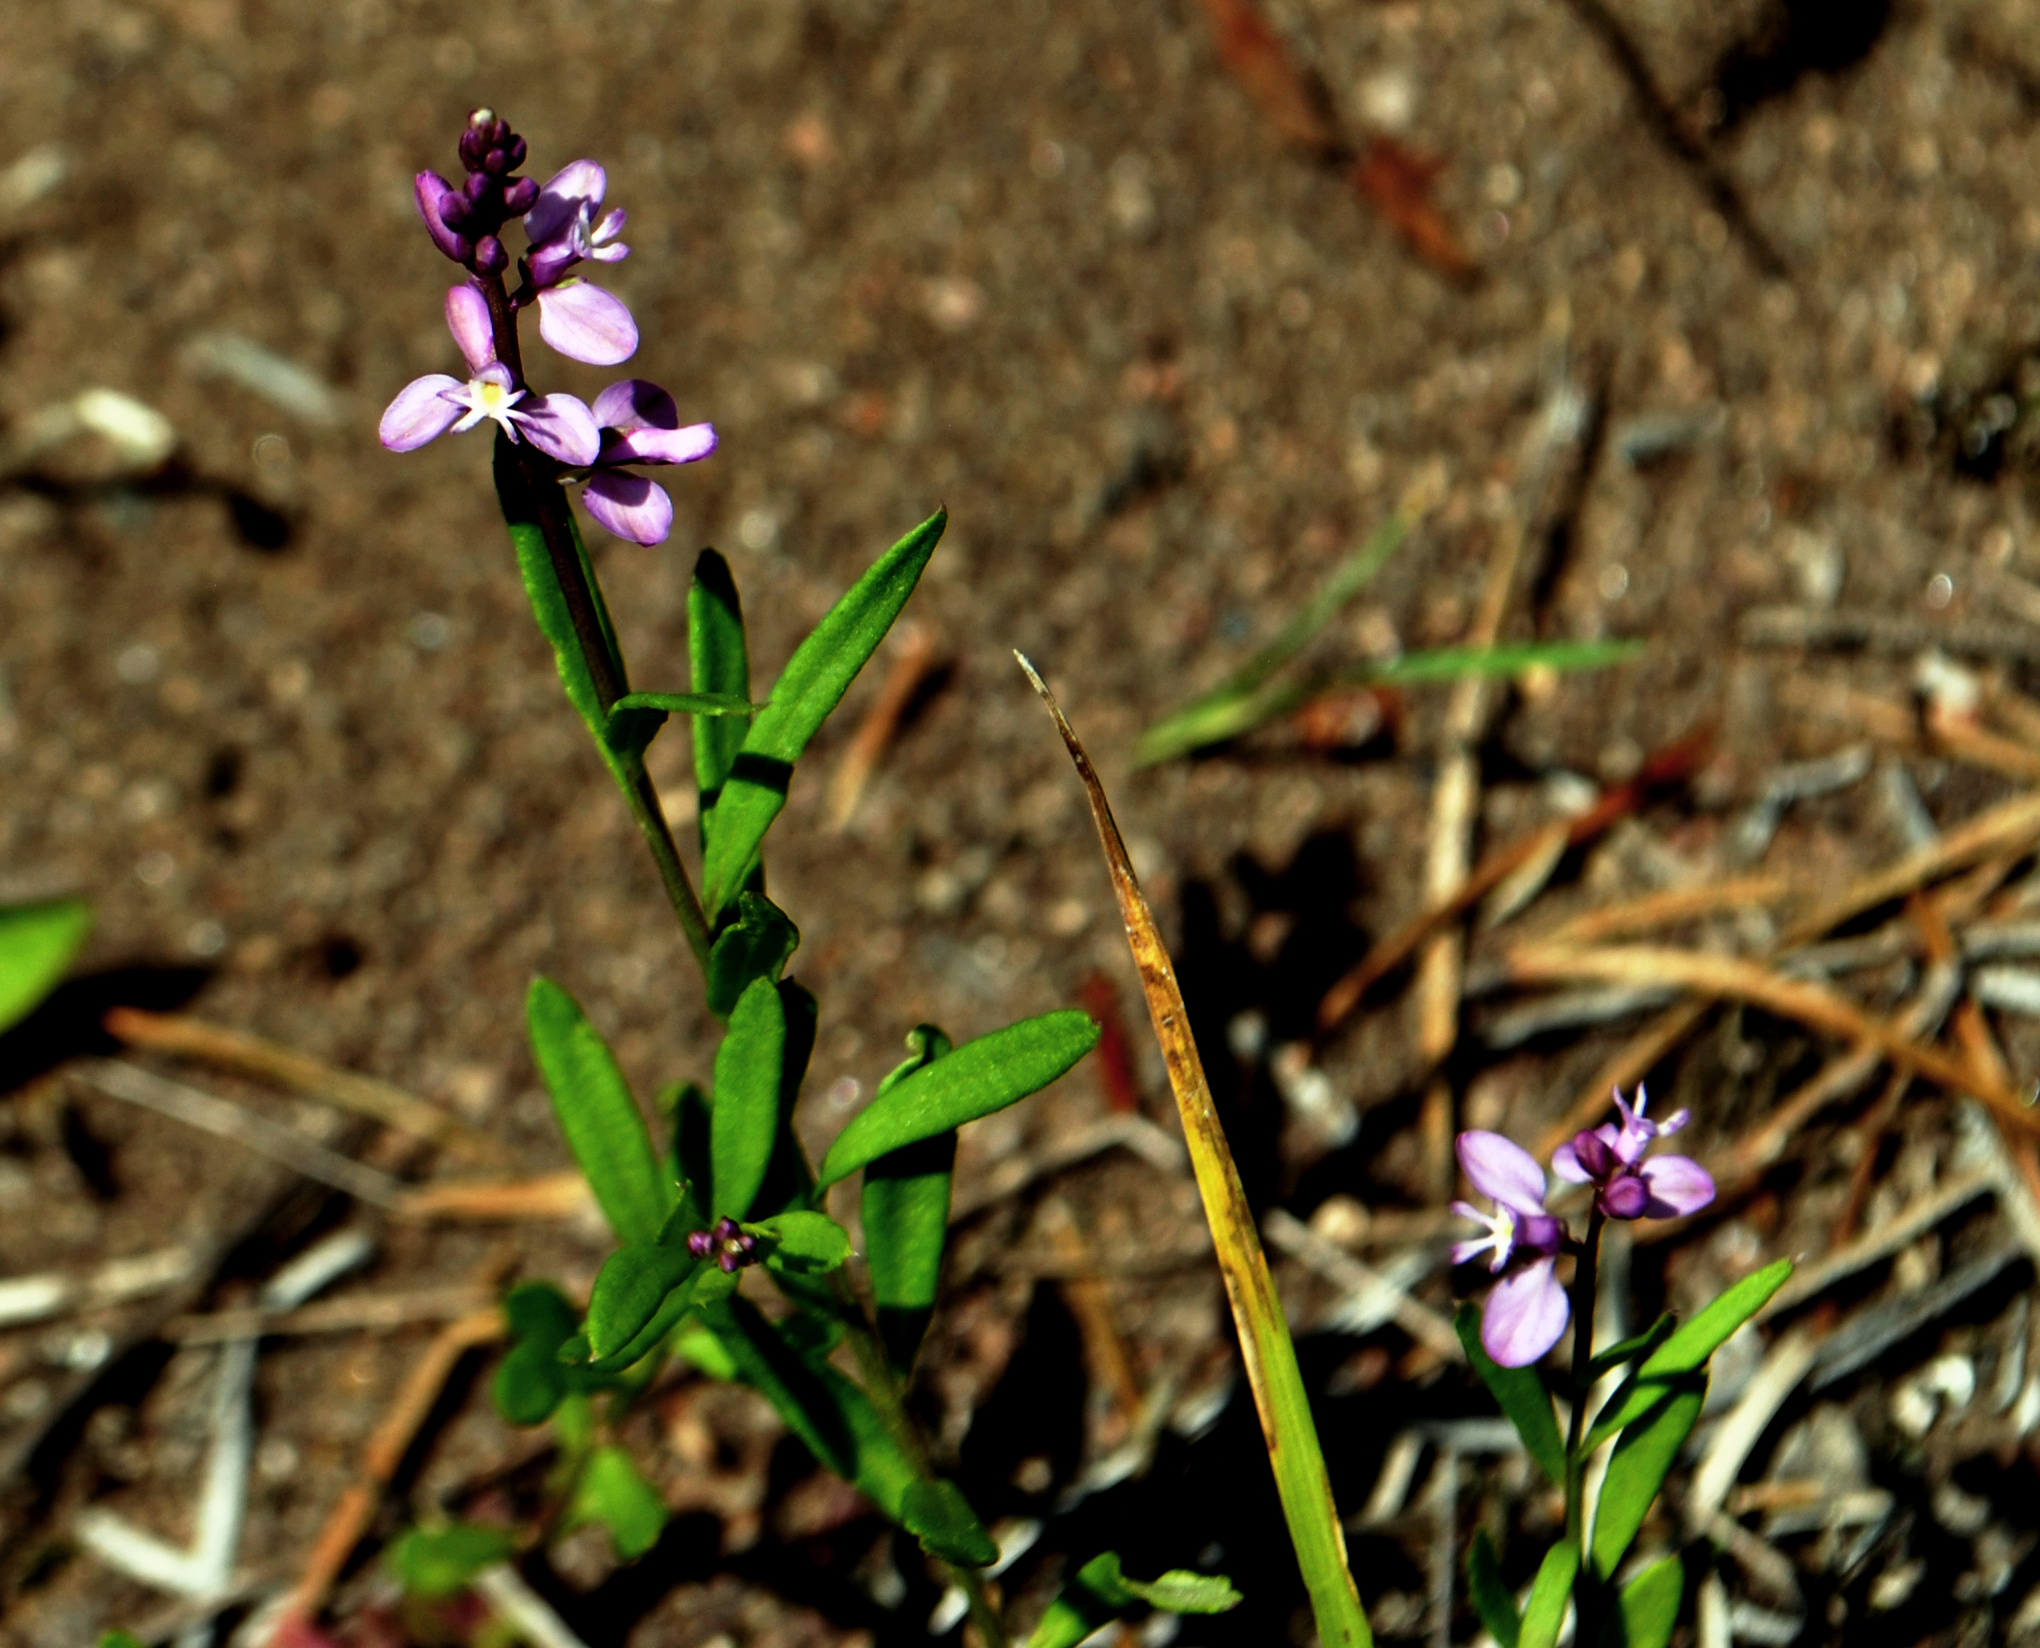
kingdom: Plantae
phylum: Tracheophyta
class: Magnoliopsida
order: Fabales
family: Polygalaceae
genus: Polygala
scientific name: Polygala polygama
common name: Bitter milkwort
